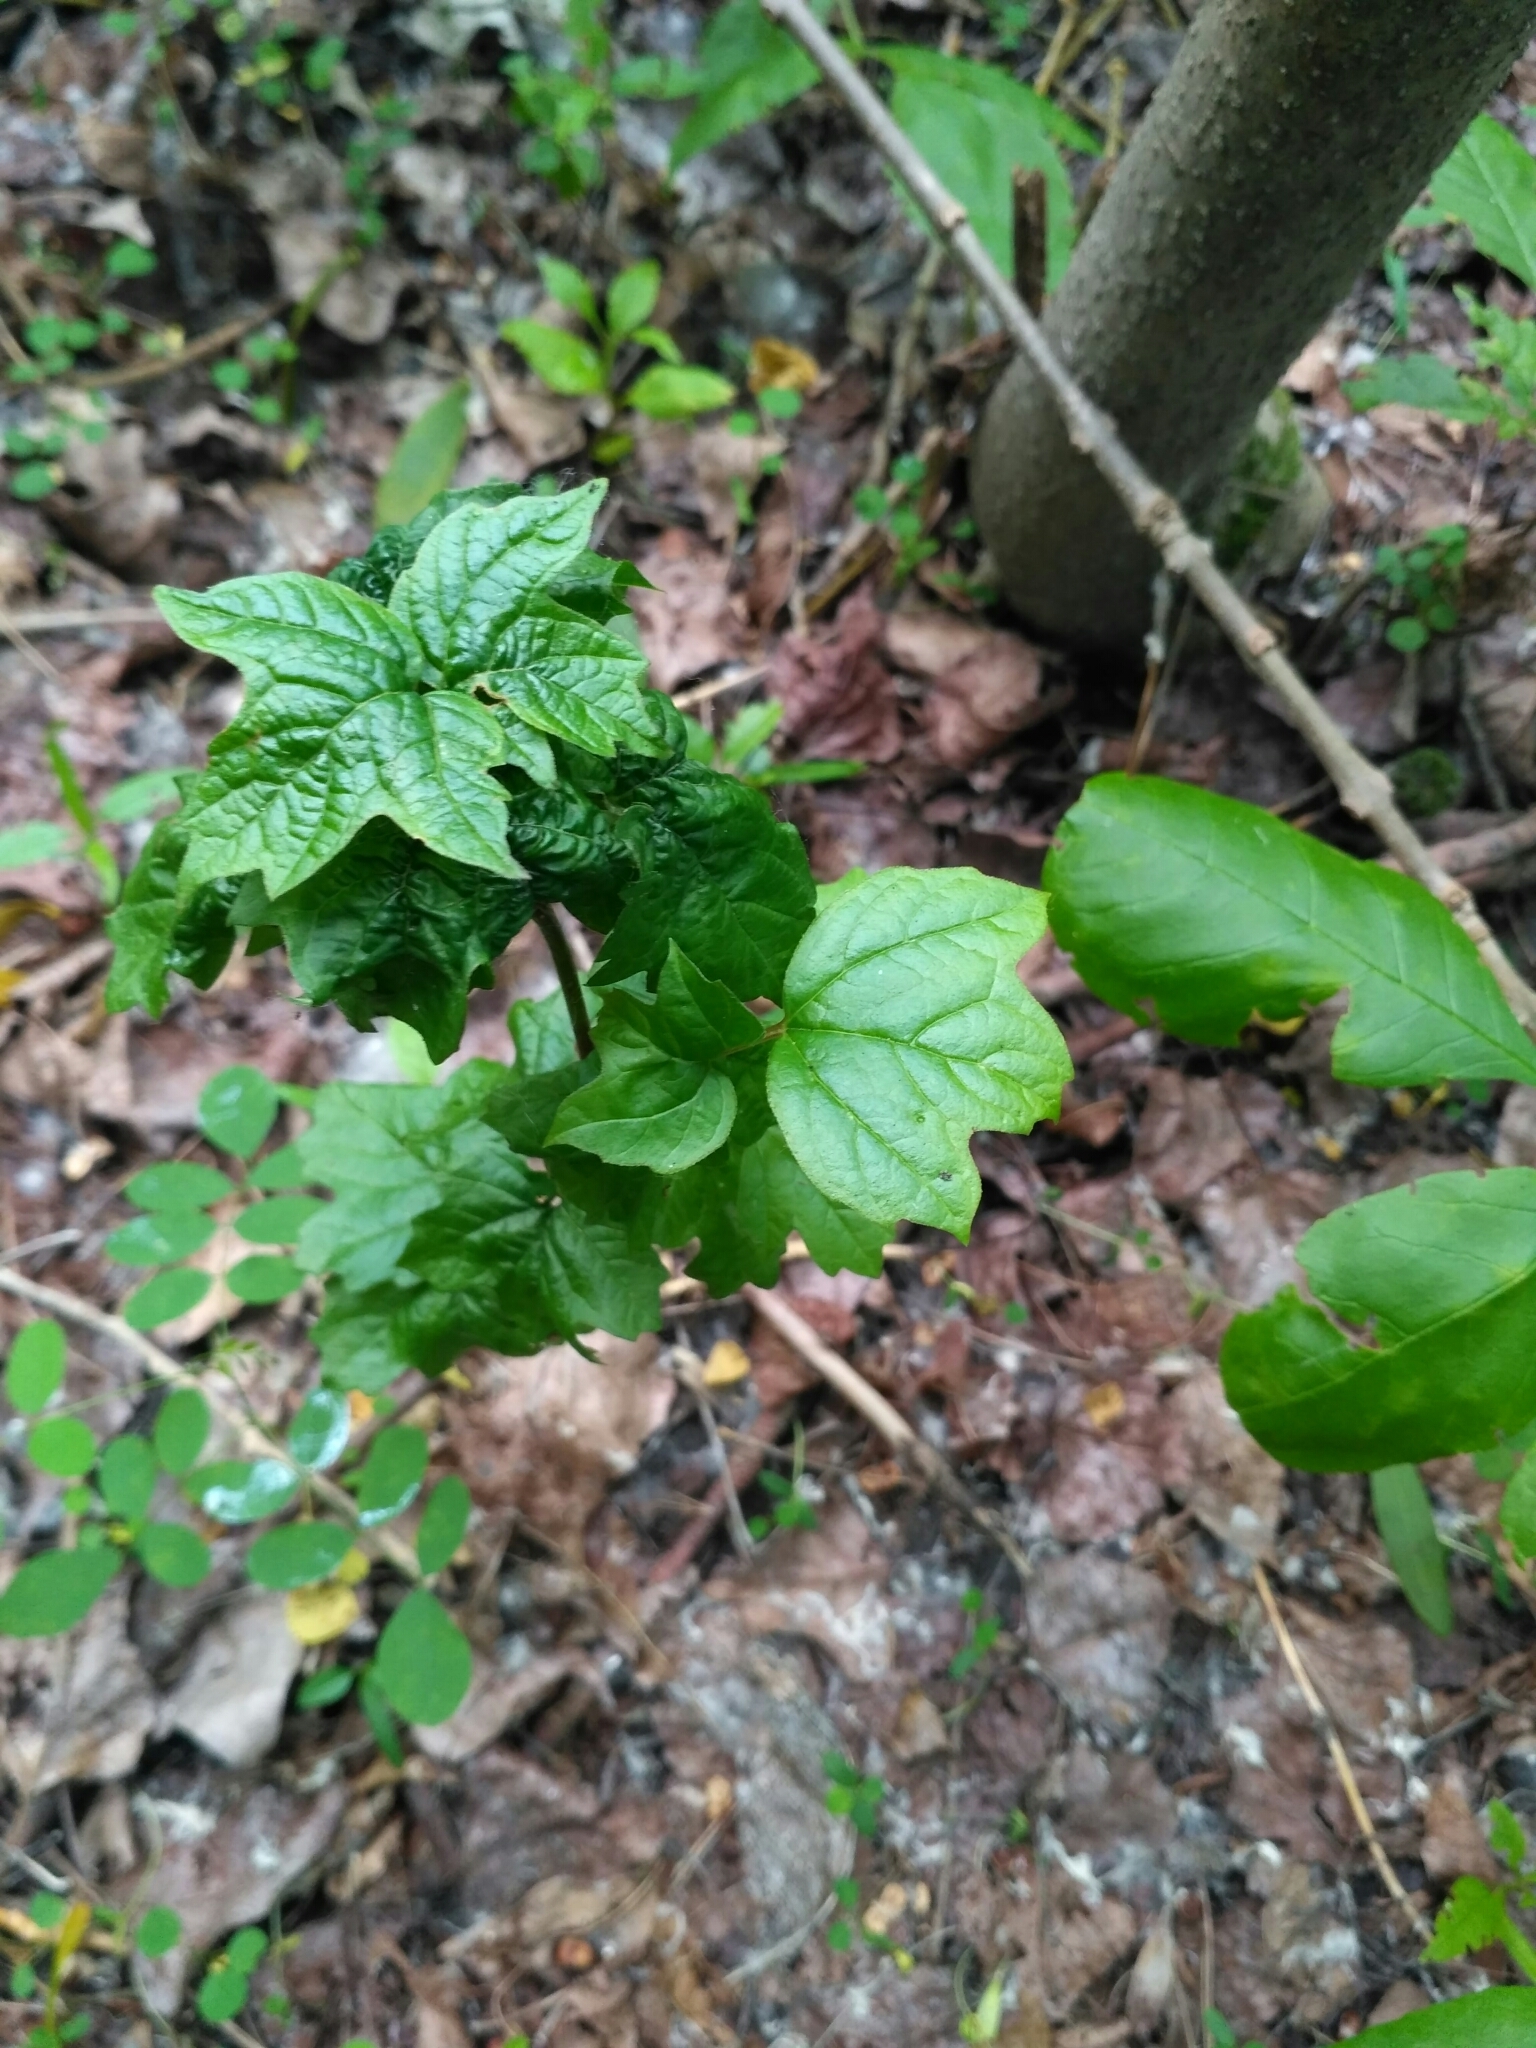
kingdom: Plantae
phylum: Tracheophyta
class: Magnoliopsida
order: Dipsacales
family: Viburnaceae
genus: Viburnum
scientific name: Viburnum opulus
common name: Guelder-rose
